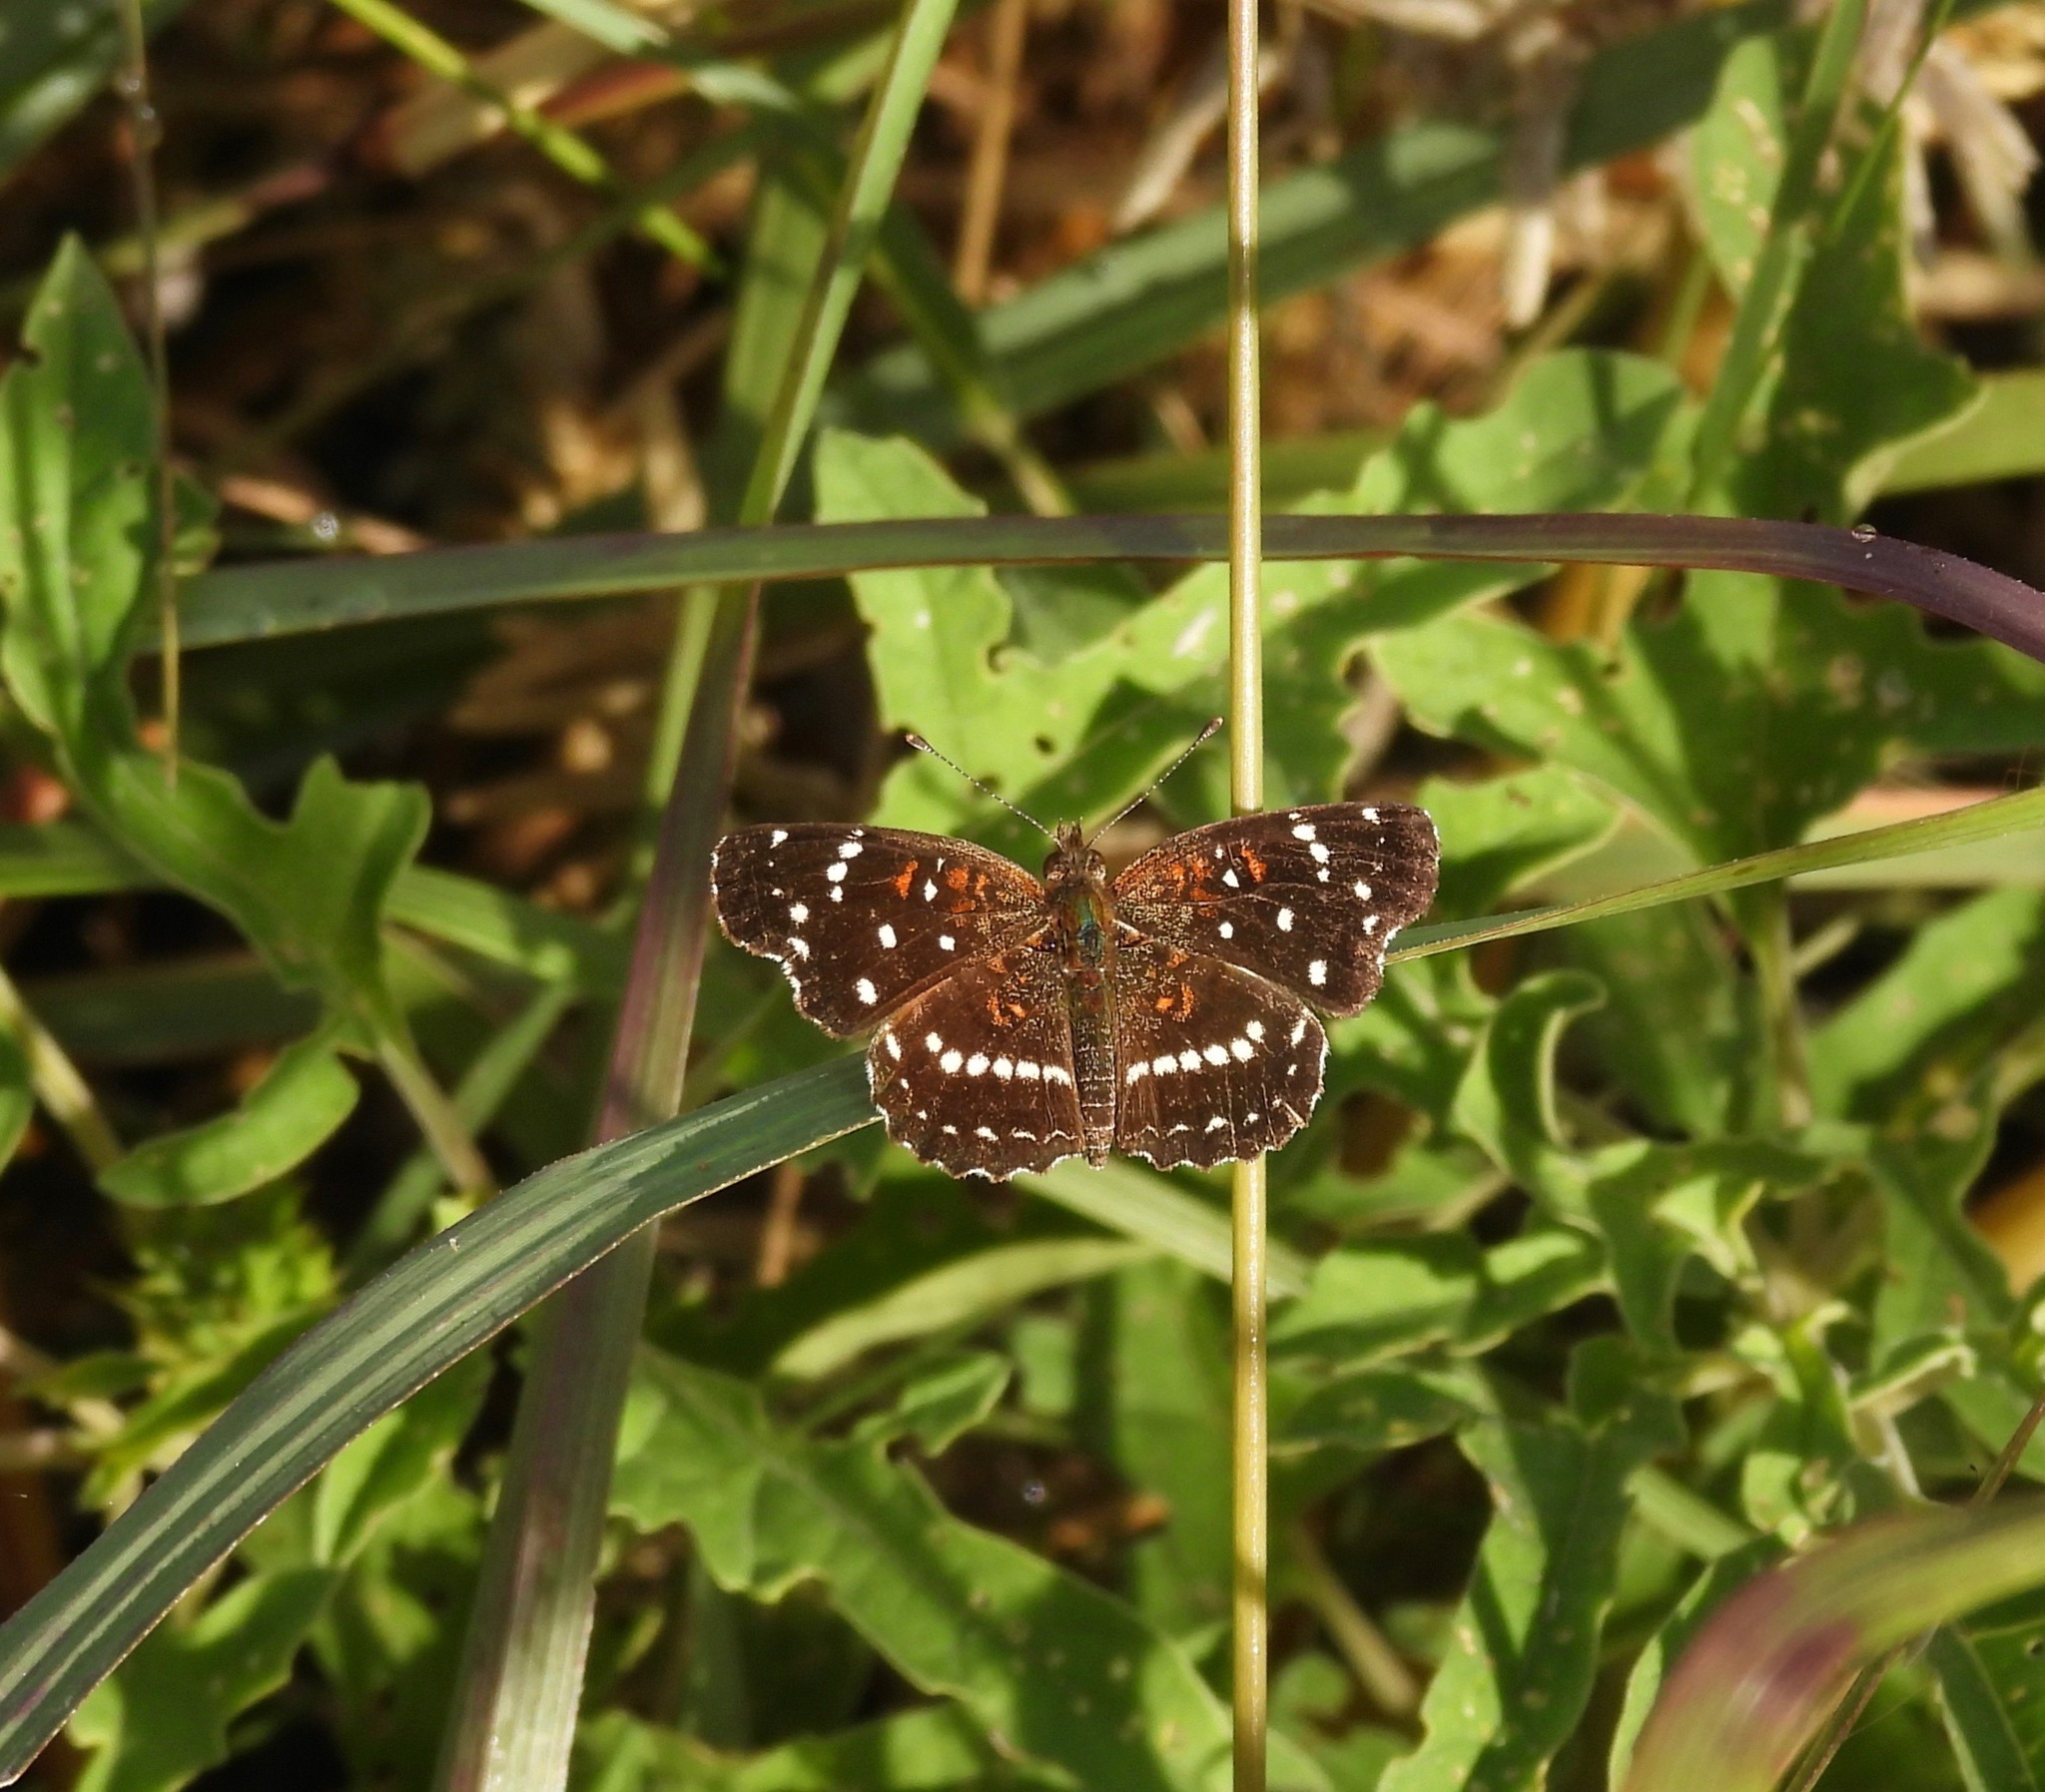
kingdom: Animalia
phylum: Arthropoda
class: Insecta
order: Lepidoptera
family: Nymphalidae
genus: Anthanassa
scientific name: Anthanassa texana
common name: Texan crescent
